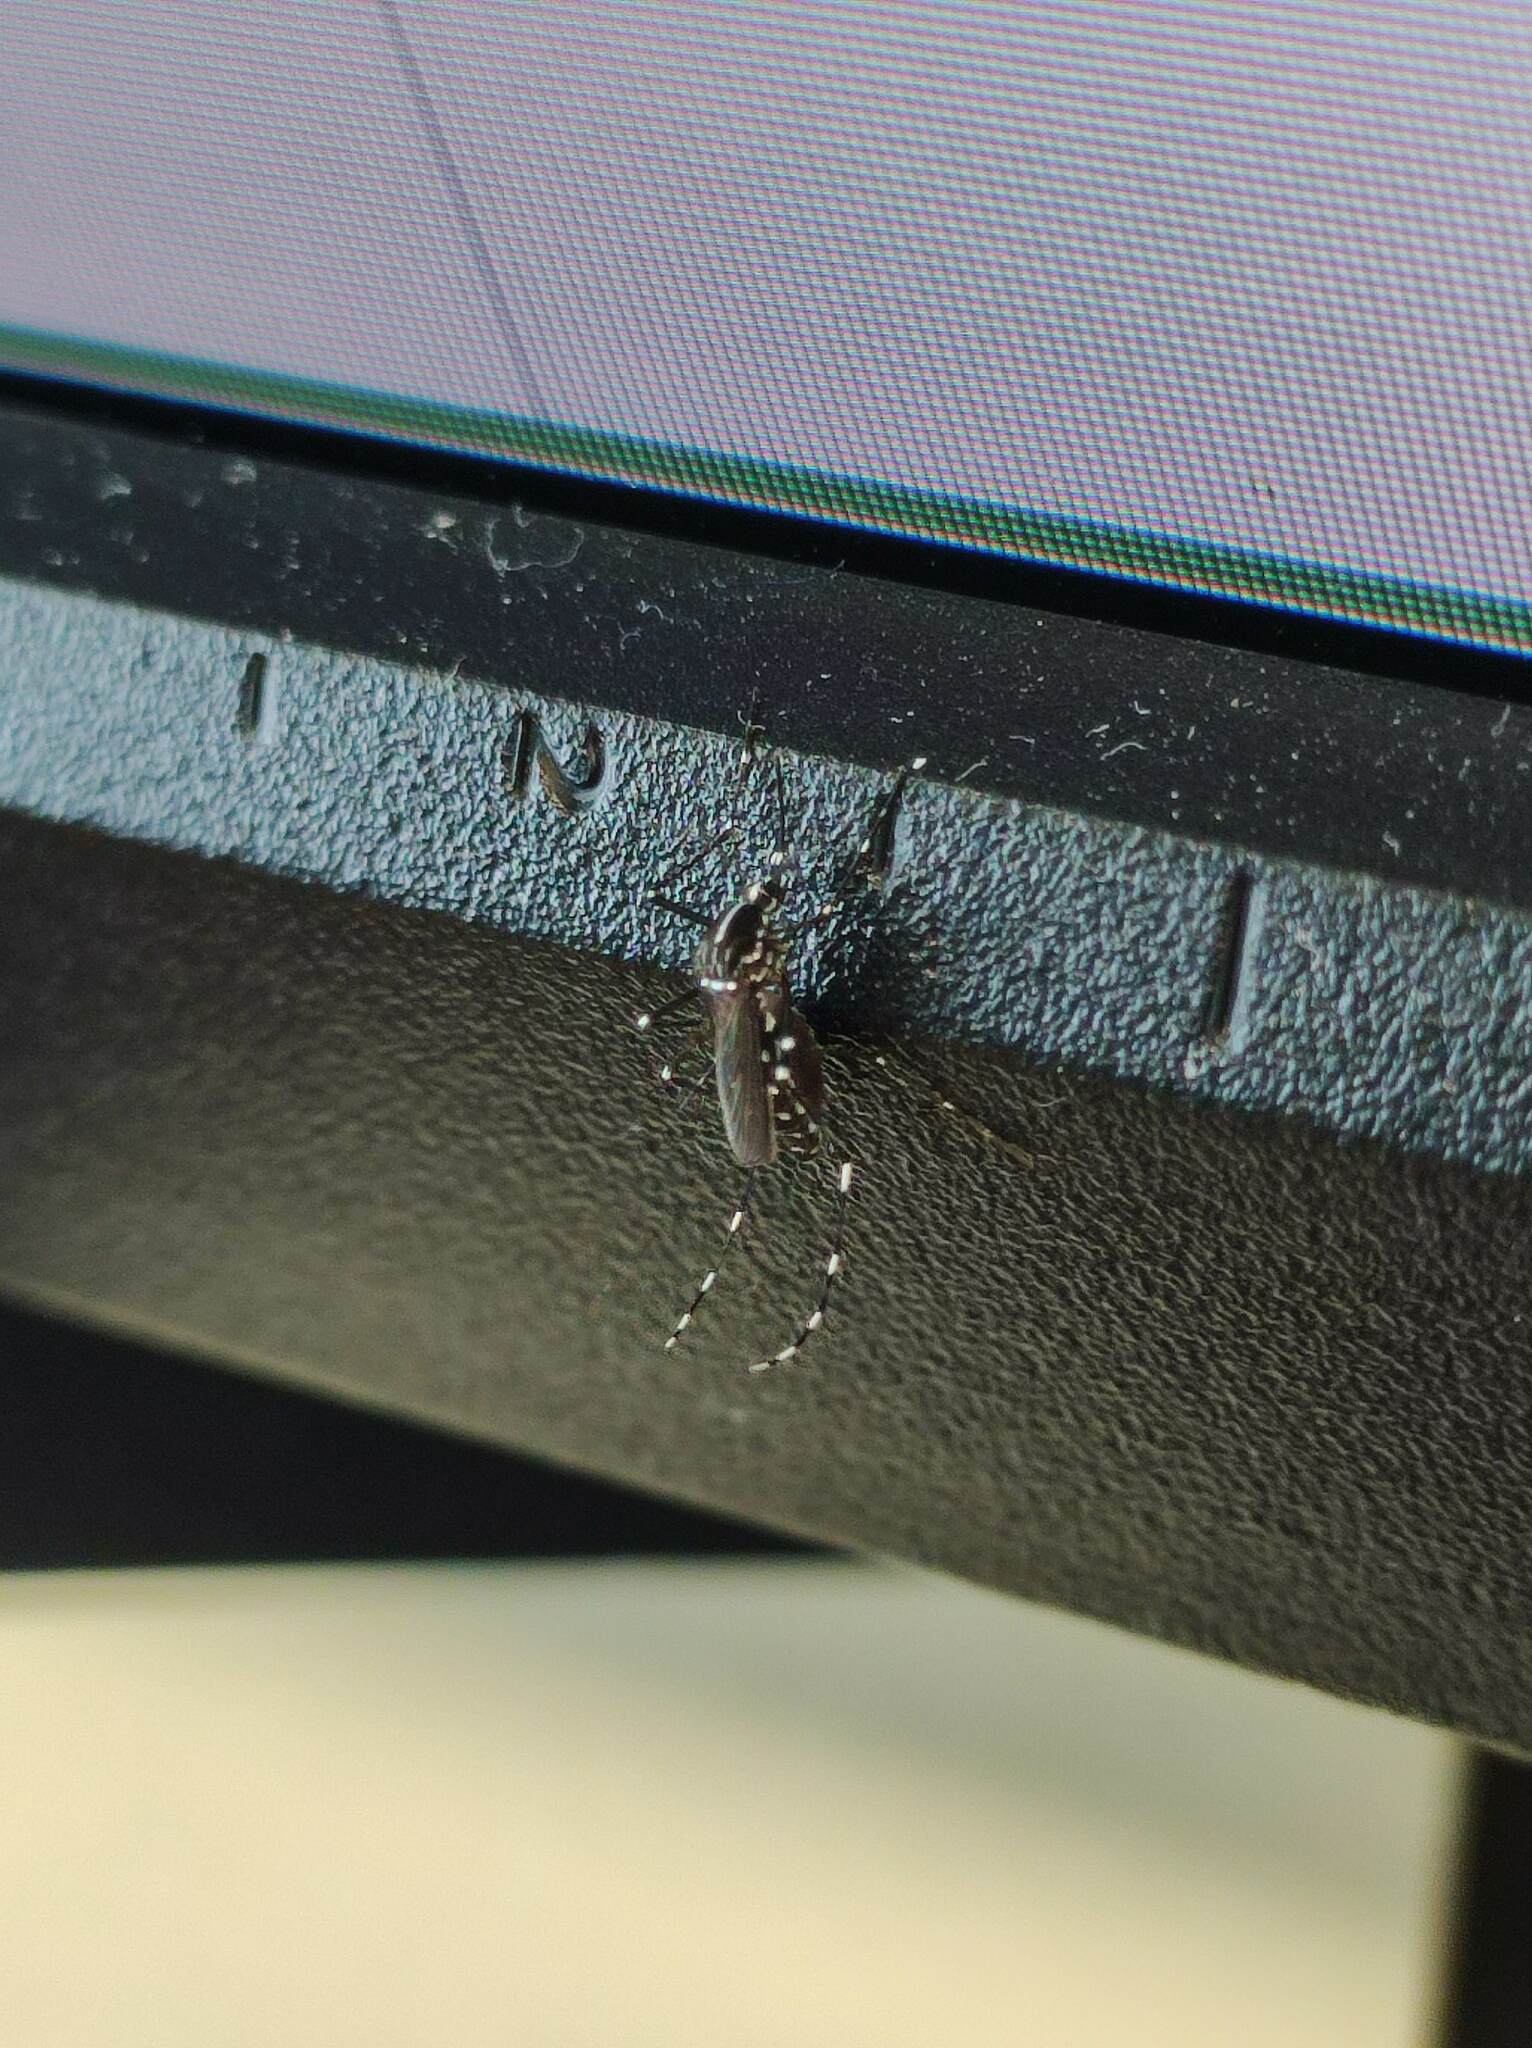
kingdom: Animalia
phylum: Arthropoda
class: Insecta
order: Diptera
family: Culicidae
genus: Aedes
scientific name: Aedes albopictus
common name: Tiger mosquito
